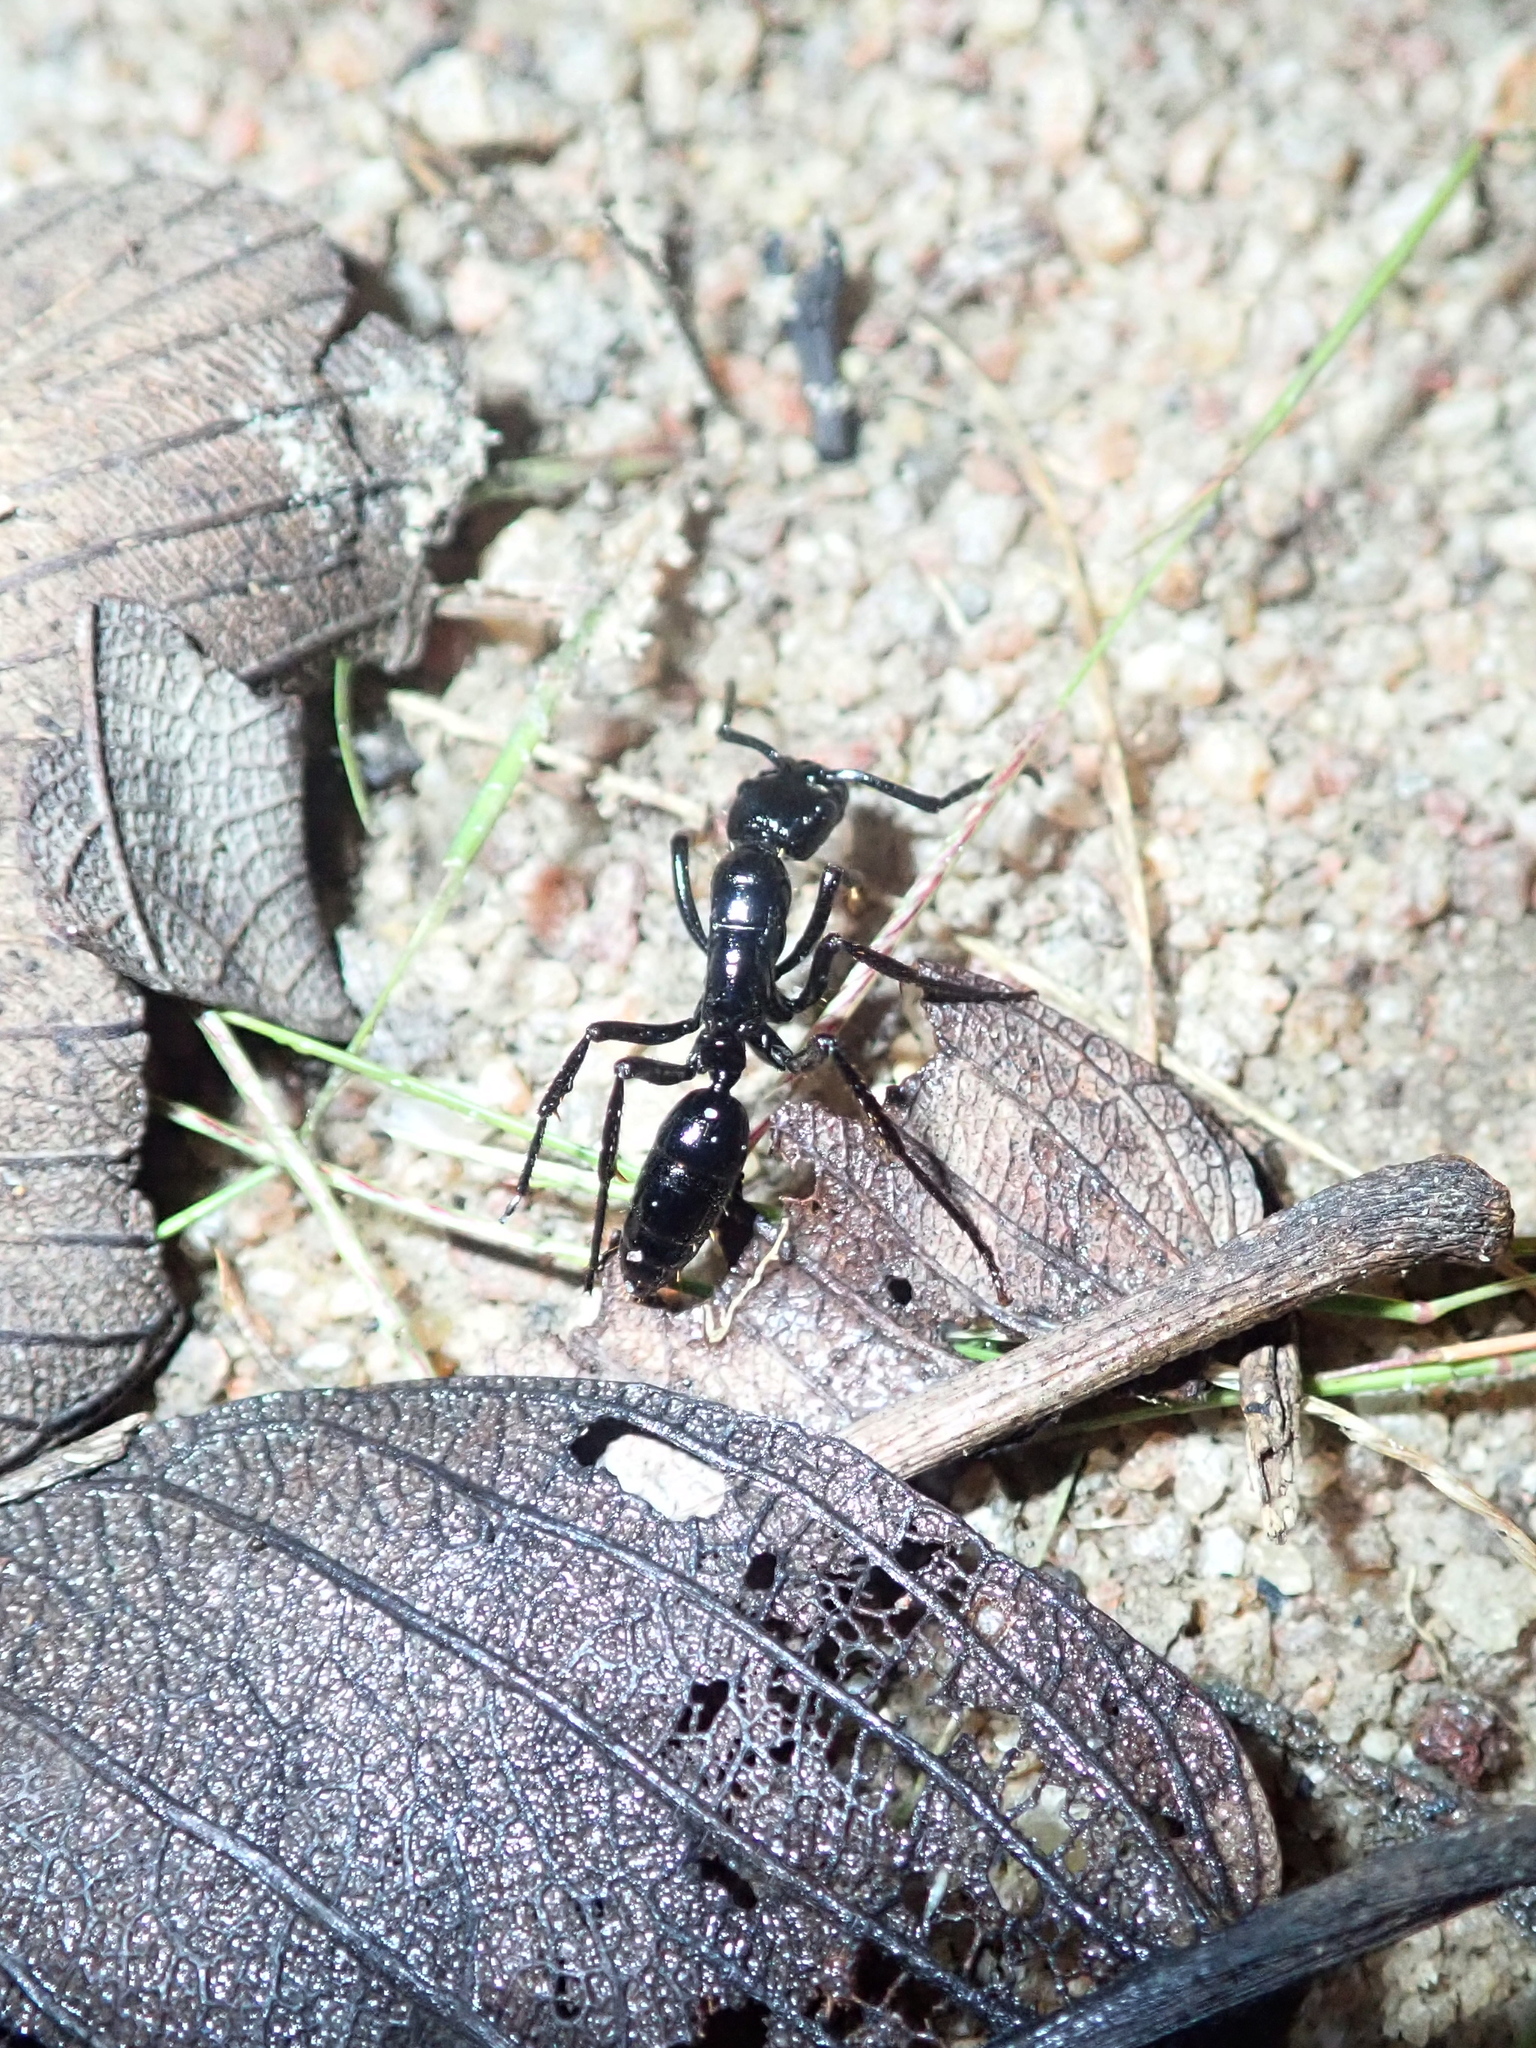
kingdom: Animalia
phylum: Arthropoda
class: Insecta
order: Hymenoptera
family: Formicidae
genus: Pachycondyla
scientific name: Pachycondyla commutata
